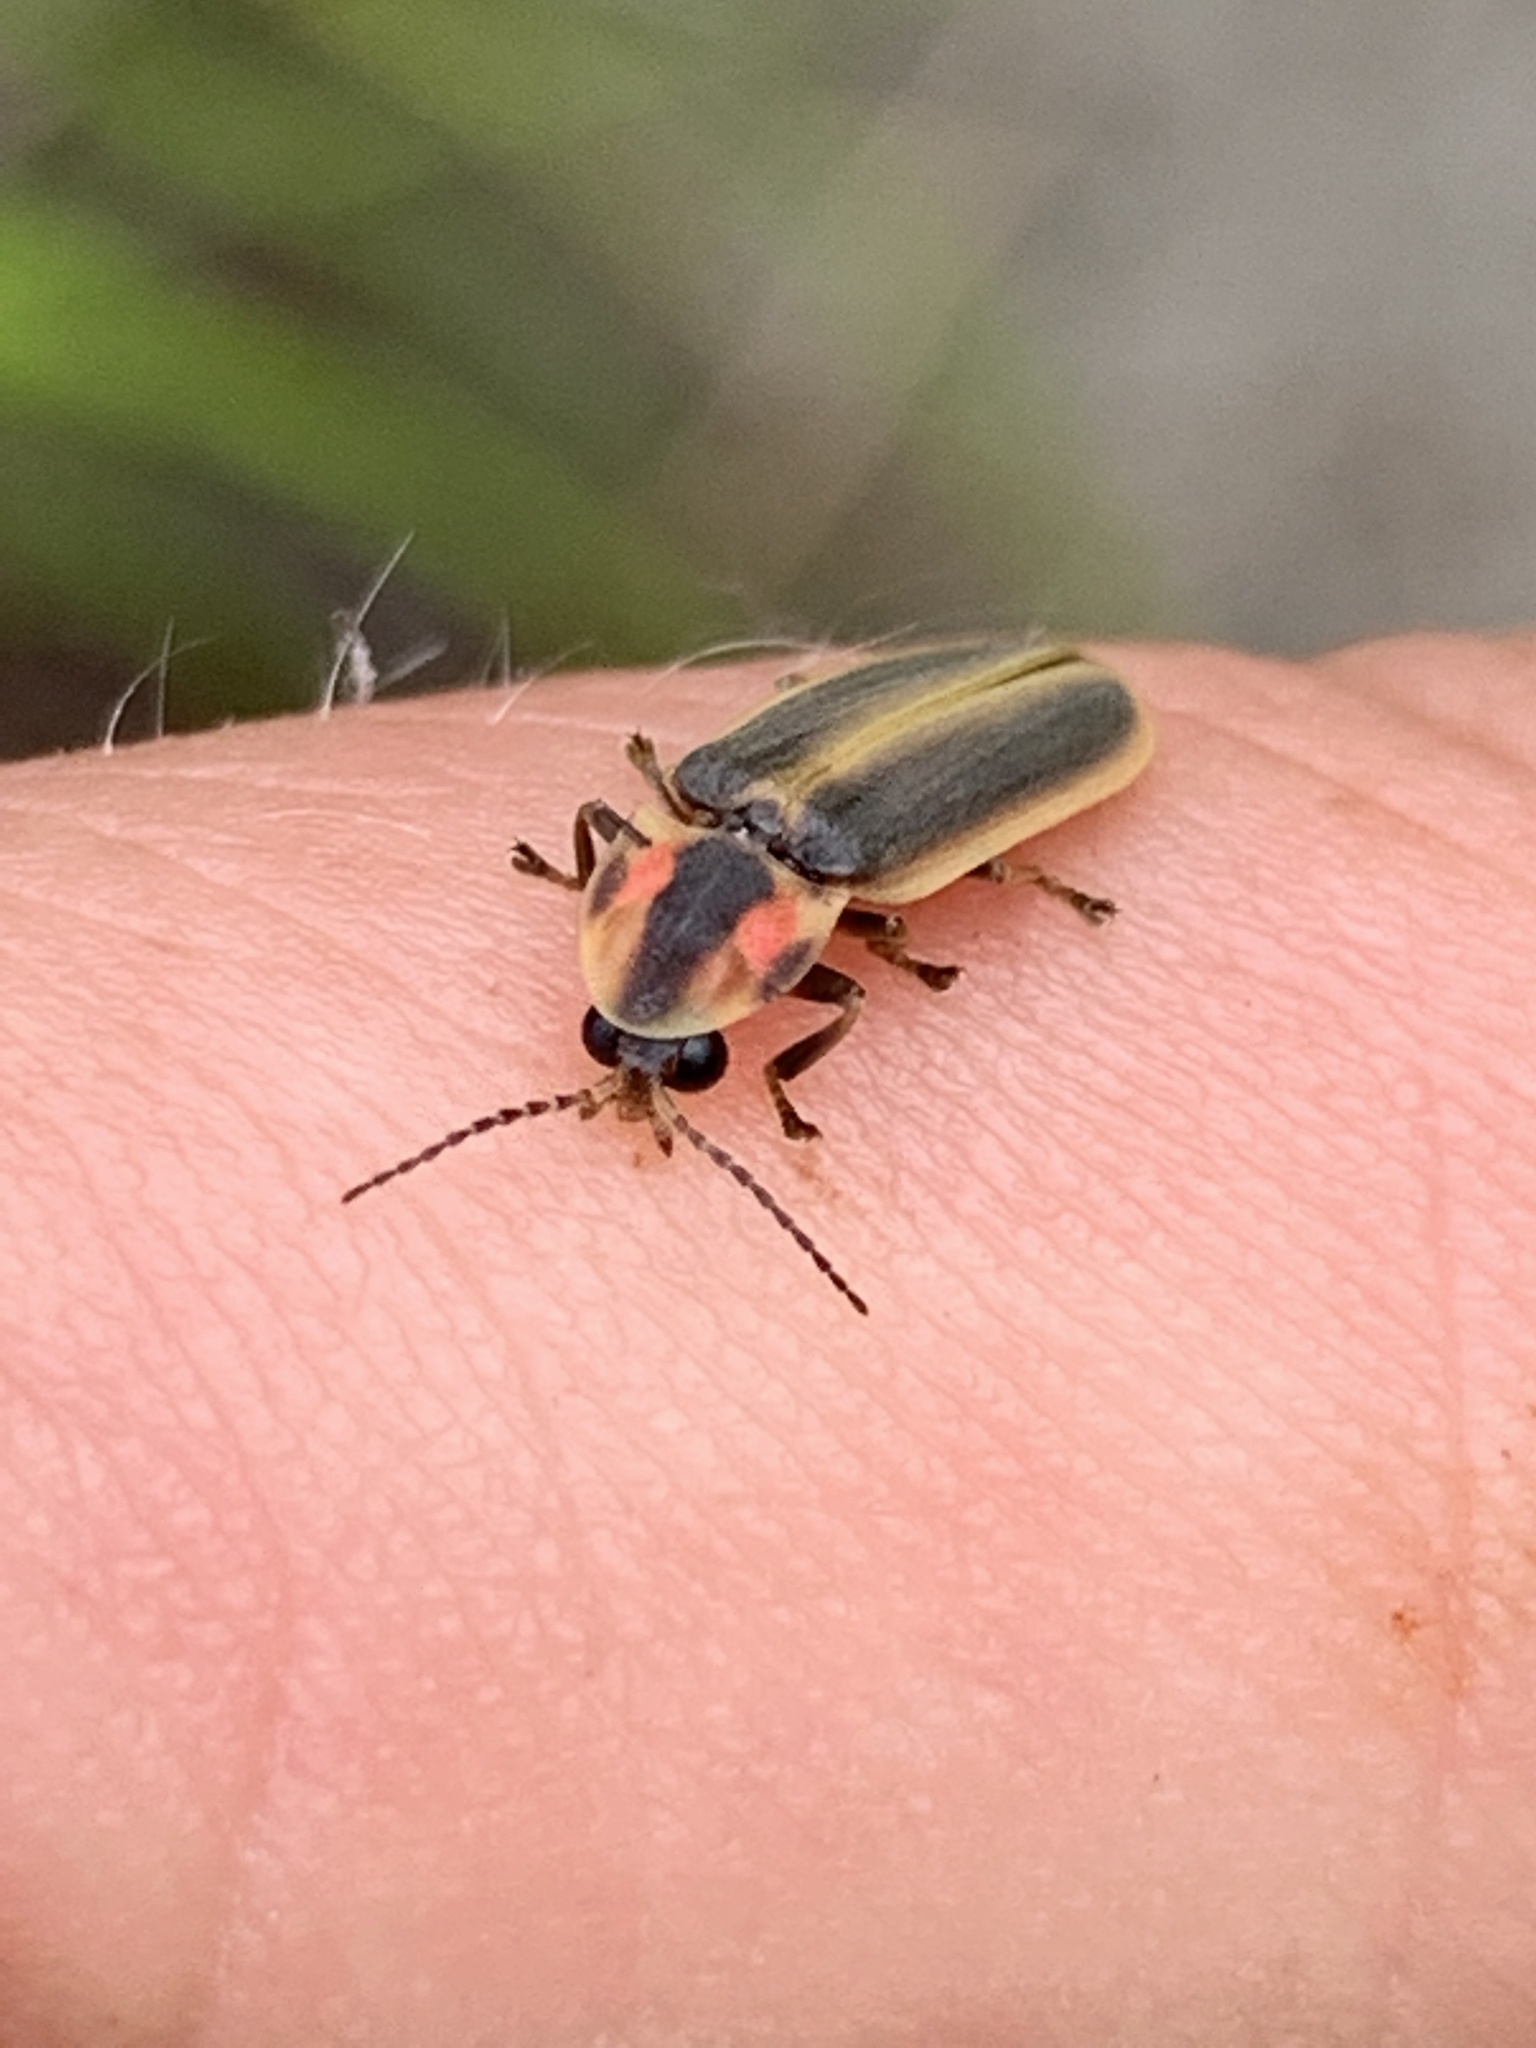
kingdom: Animalia
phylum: Arthropoda
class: Insecta
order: Coleoptera
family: Lampyridae
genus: Pyractomena
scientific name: Pyractomena borealis
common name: Northern firefly
